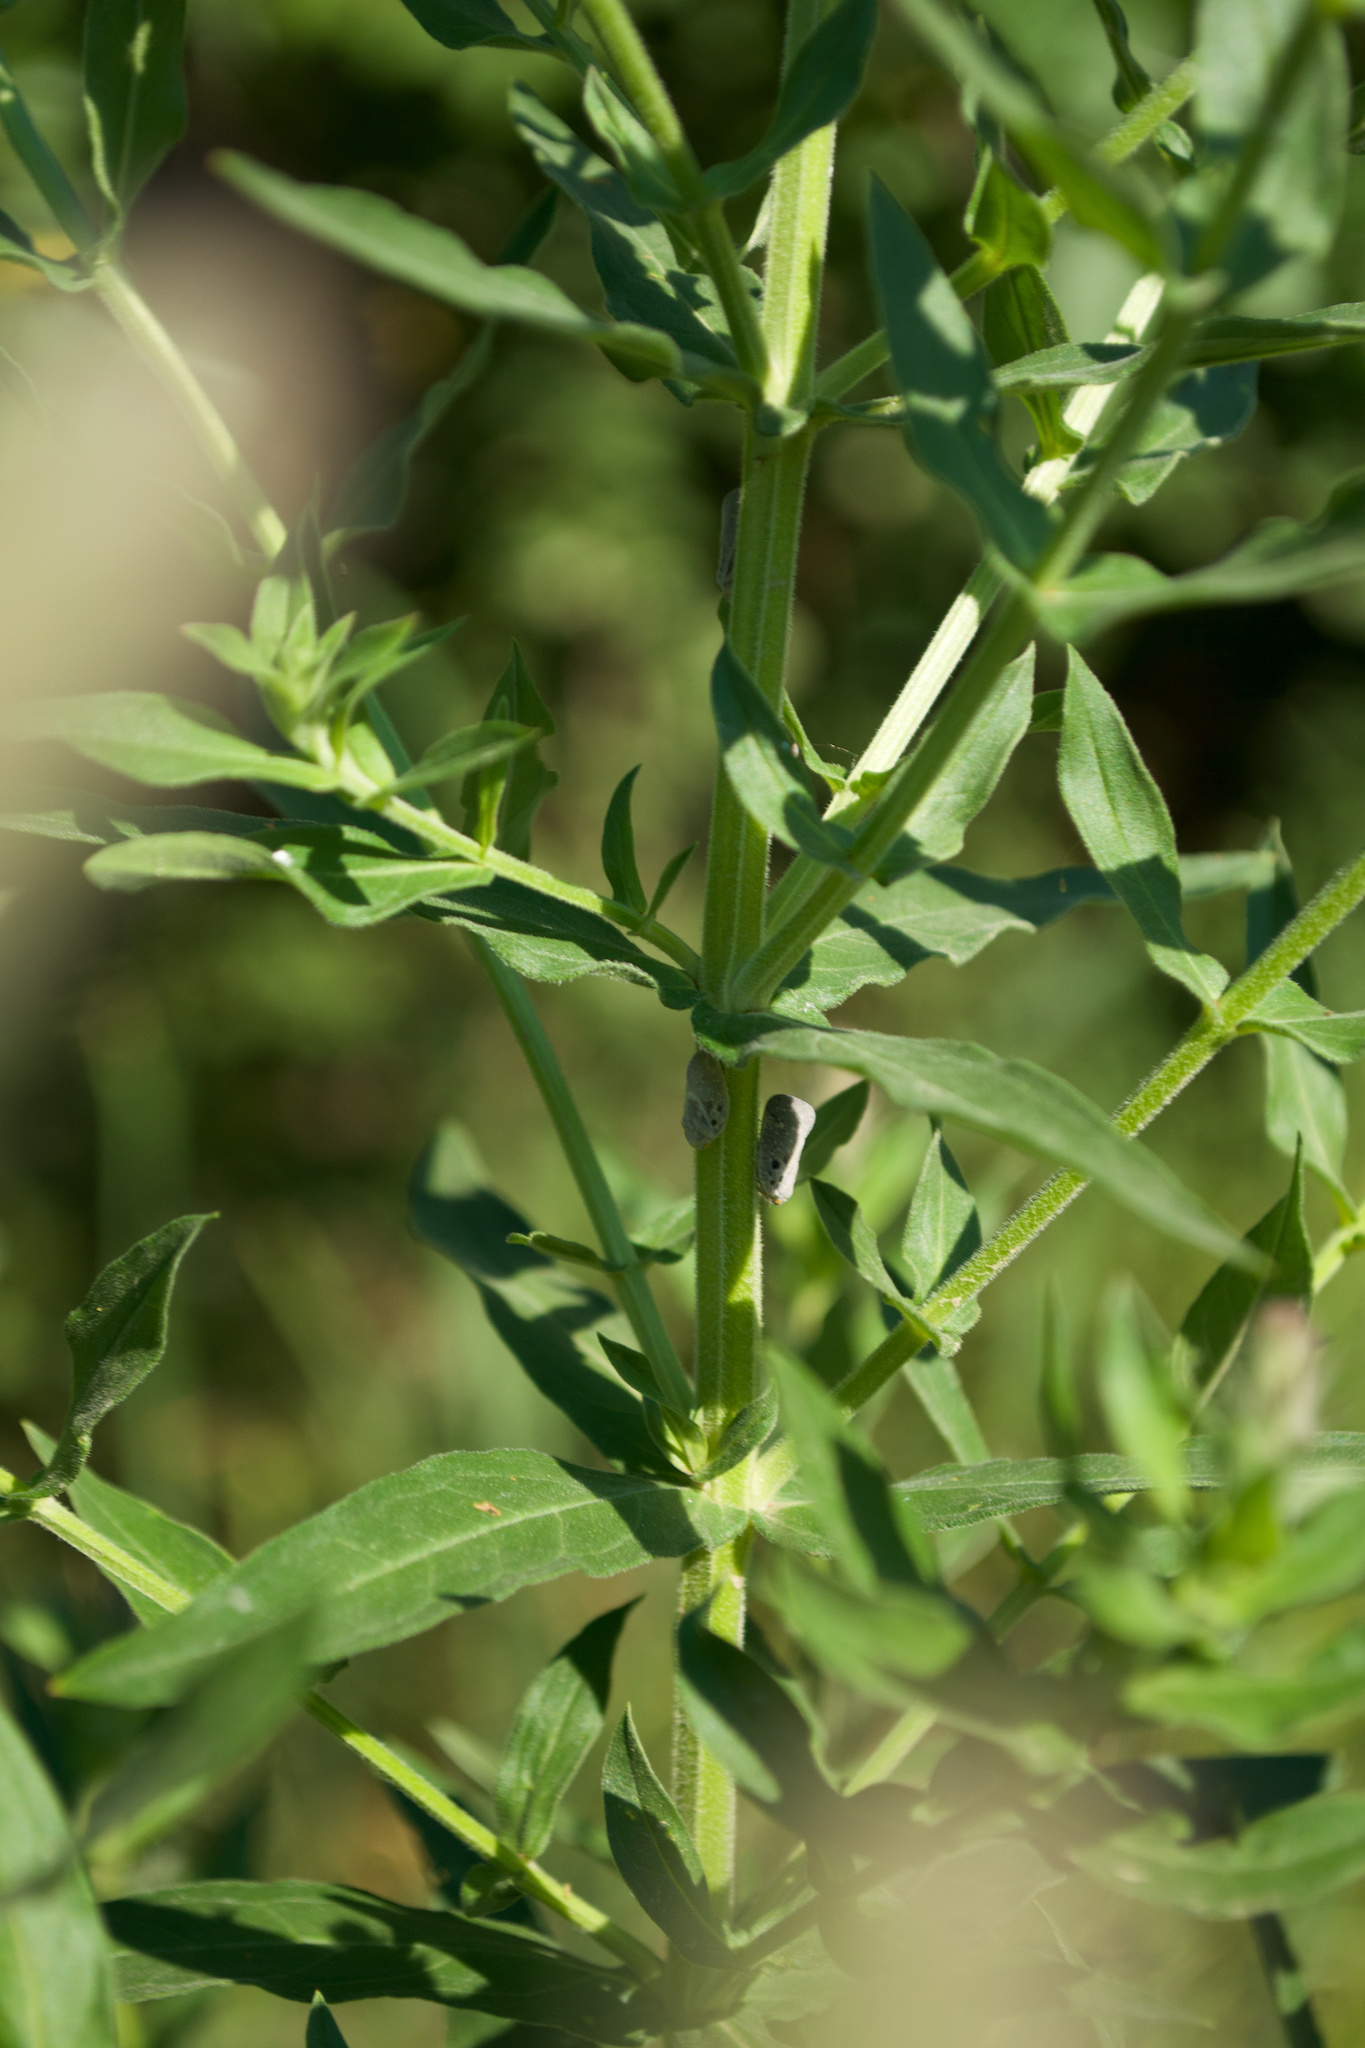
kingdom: Plantae
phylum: Tracheophyta
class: Magnoliopsida
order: Myrtales
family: Lythraceae
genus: Lythrum
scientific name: Lythrum salicaria
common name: Purple loosestrife
